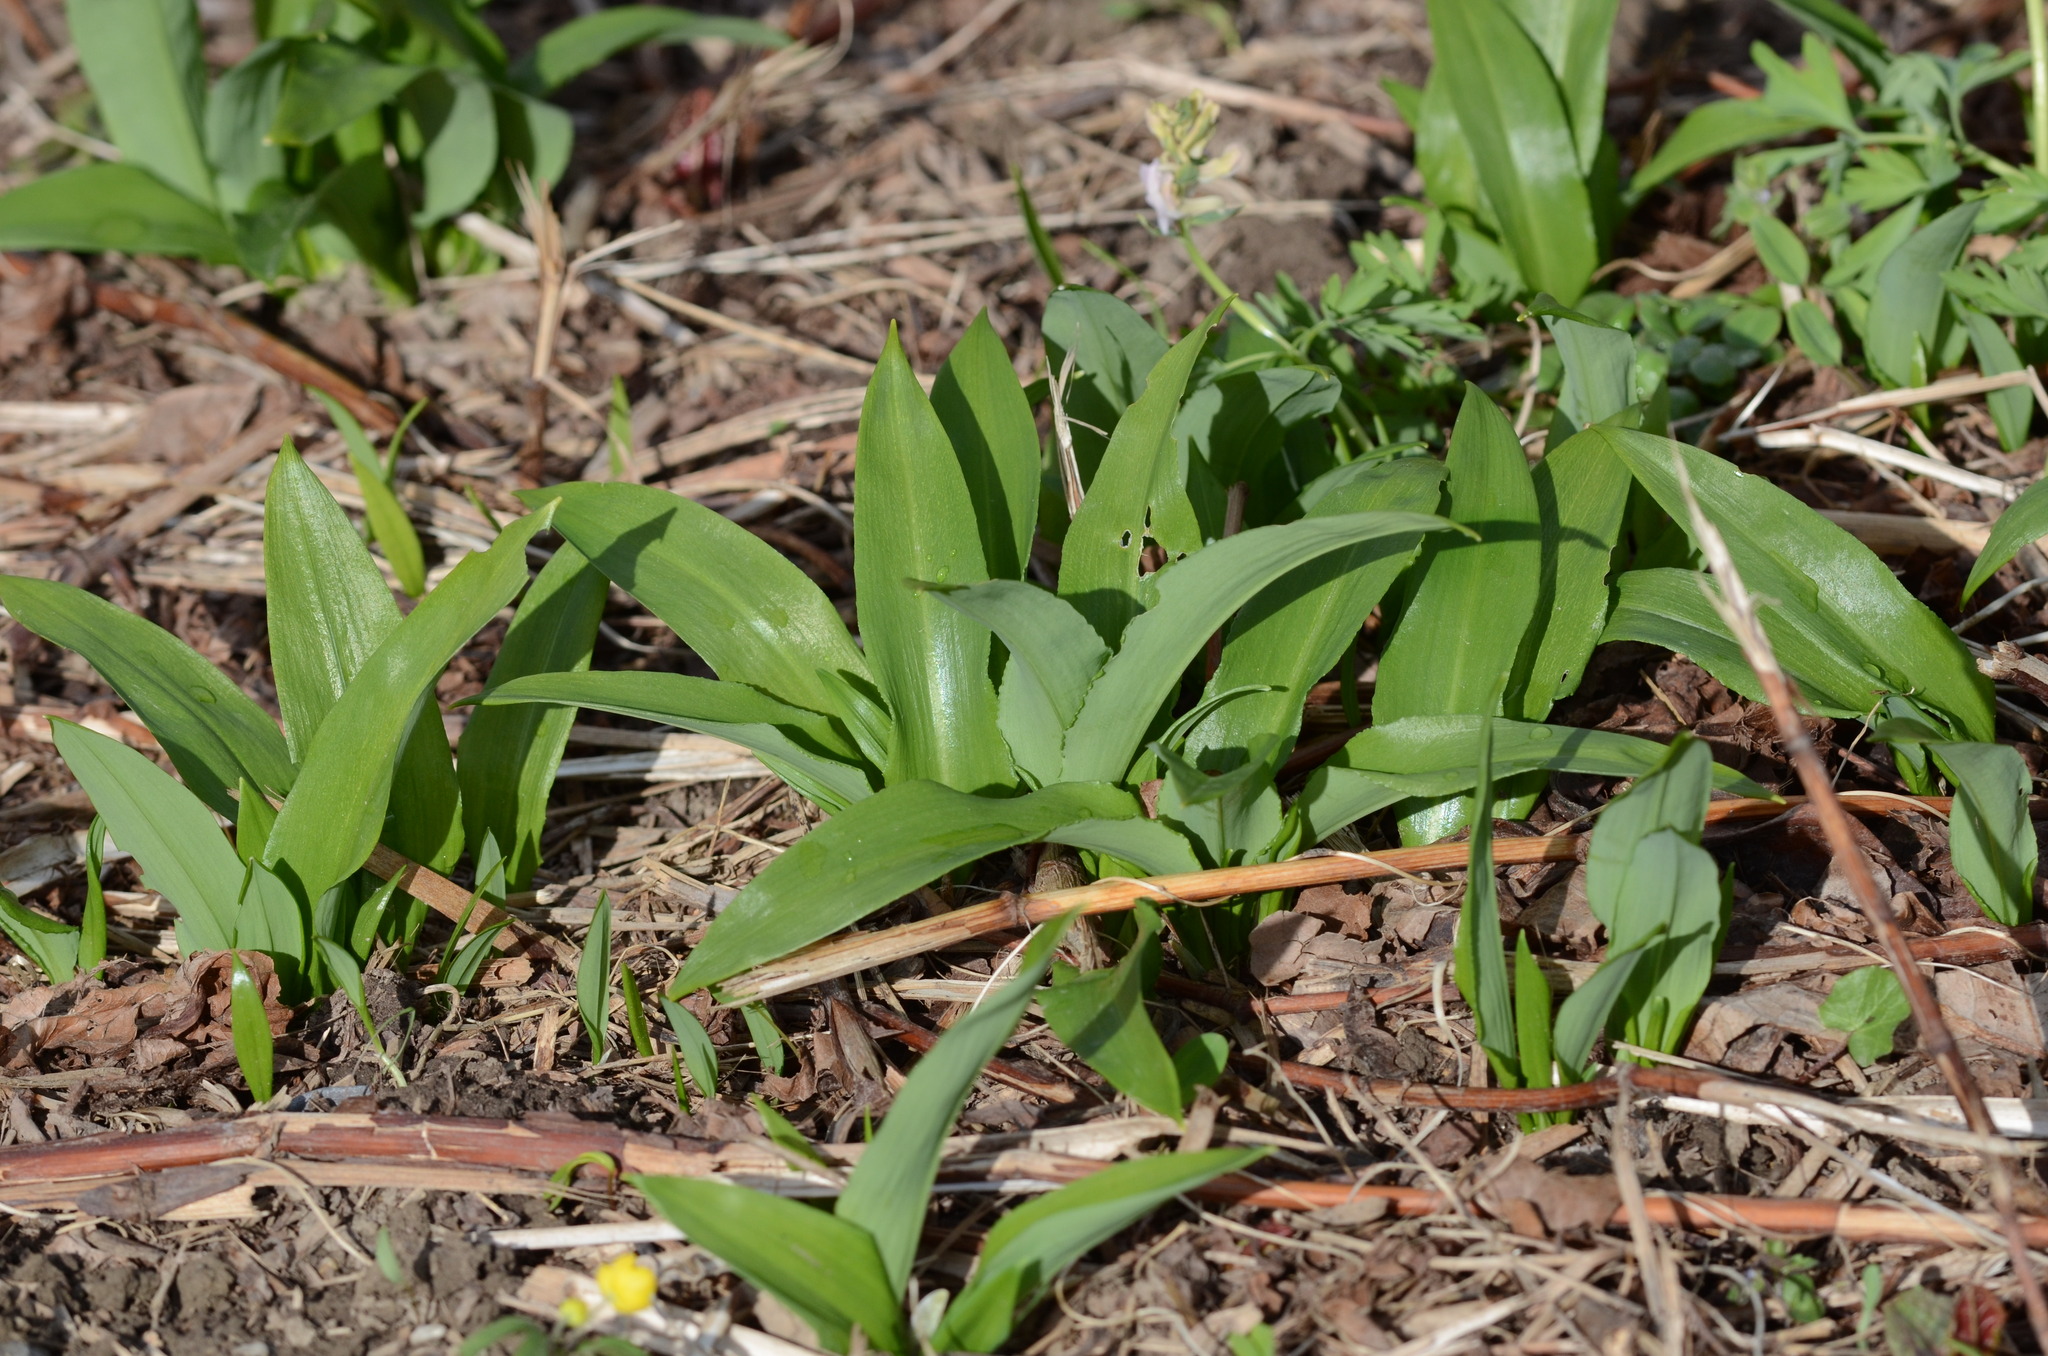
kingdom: Plantae
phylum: Tracheophyta
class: Liliopsida
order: Asparagales
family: Amaryllidaceae
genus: Allium
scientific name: Allium ursinum
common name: Ramsons
